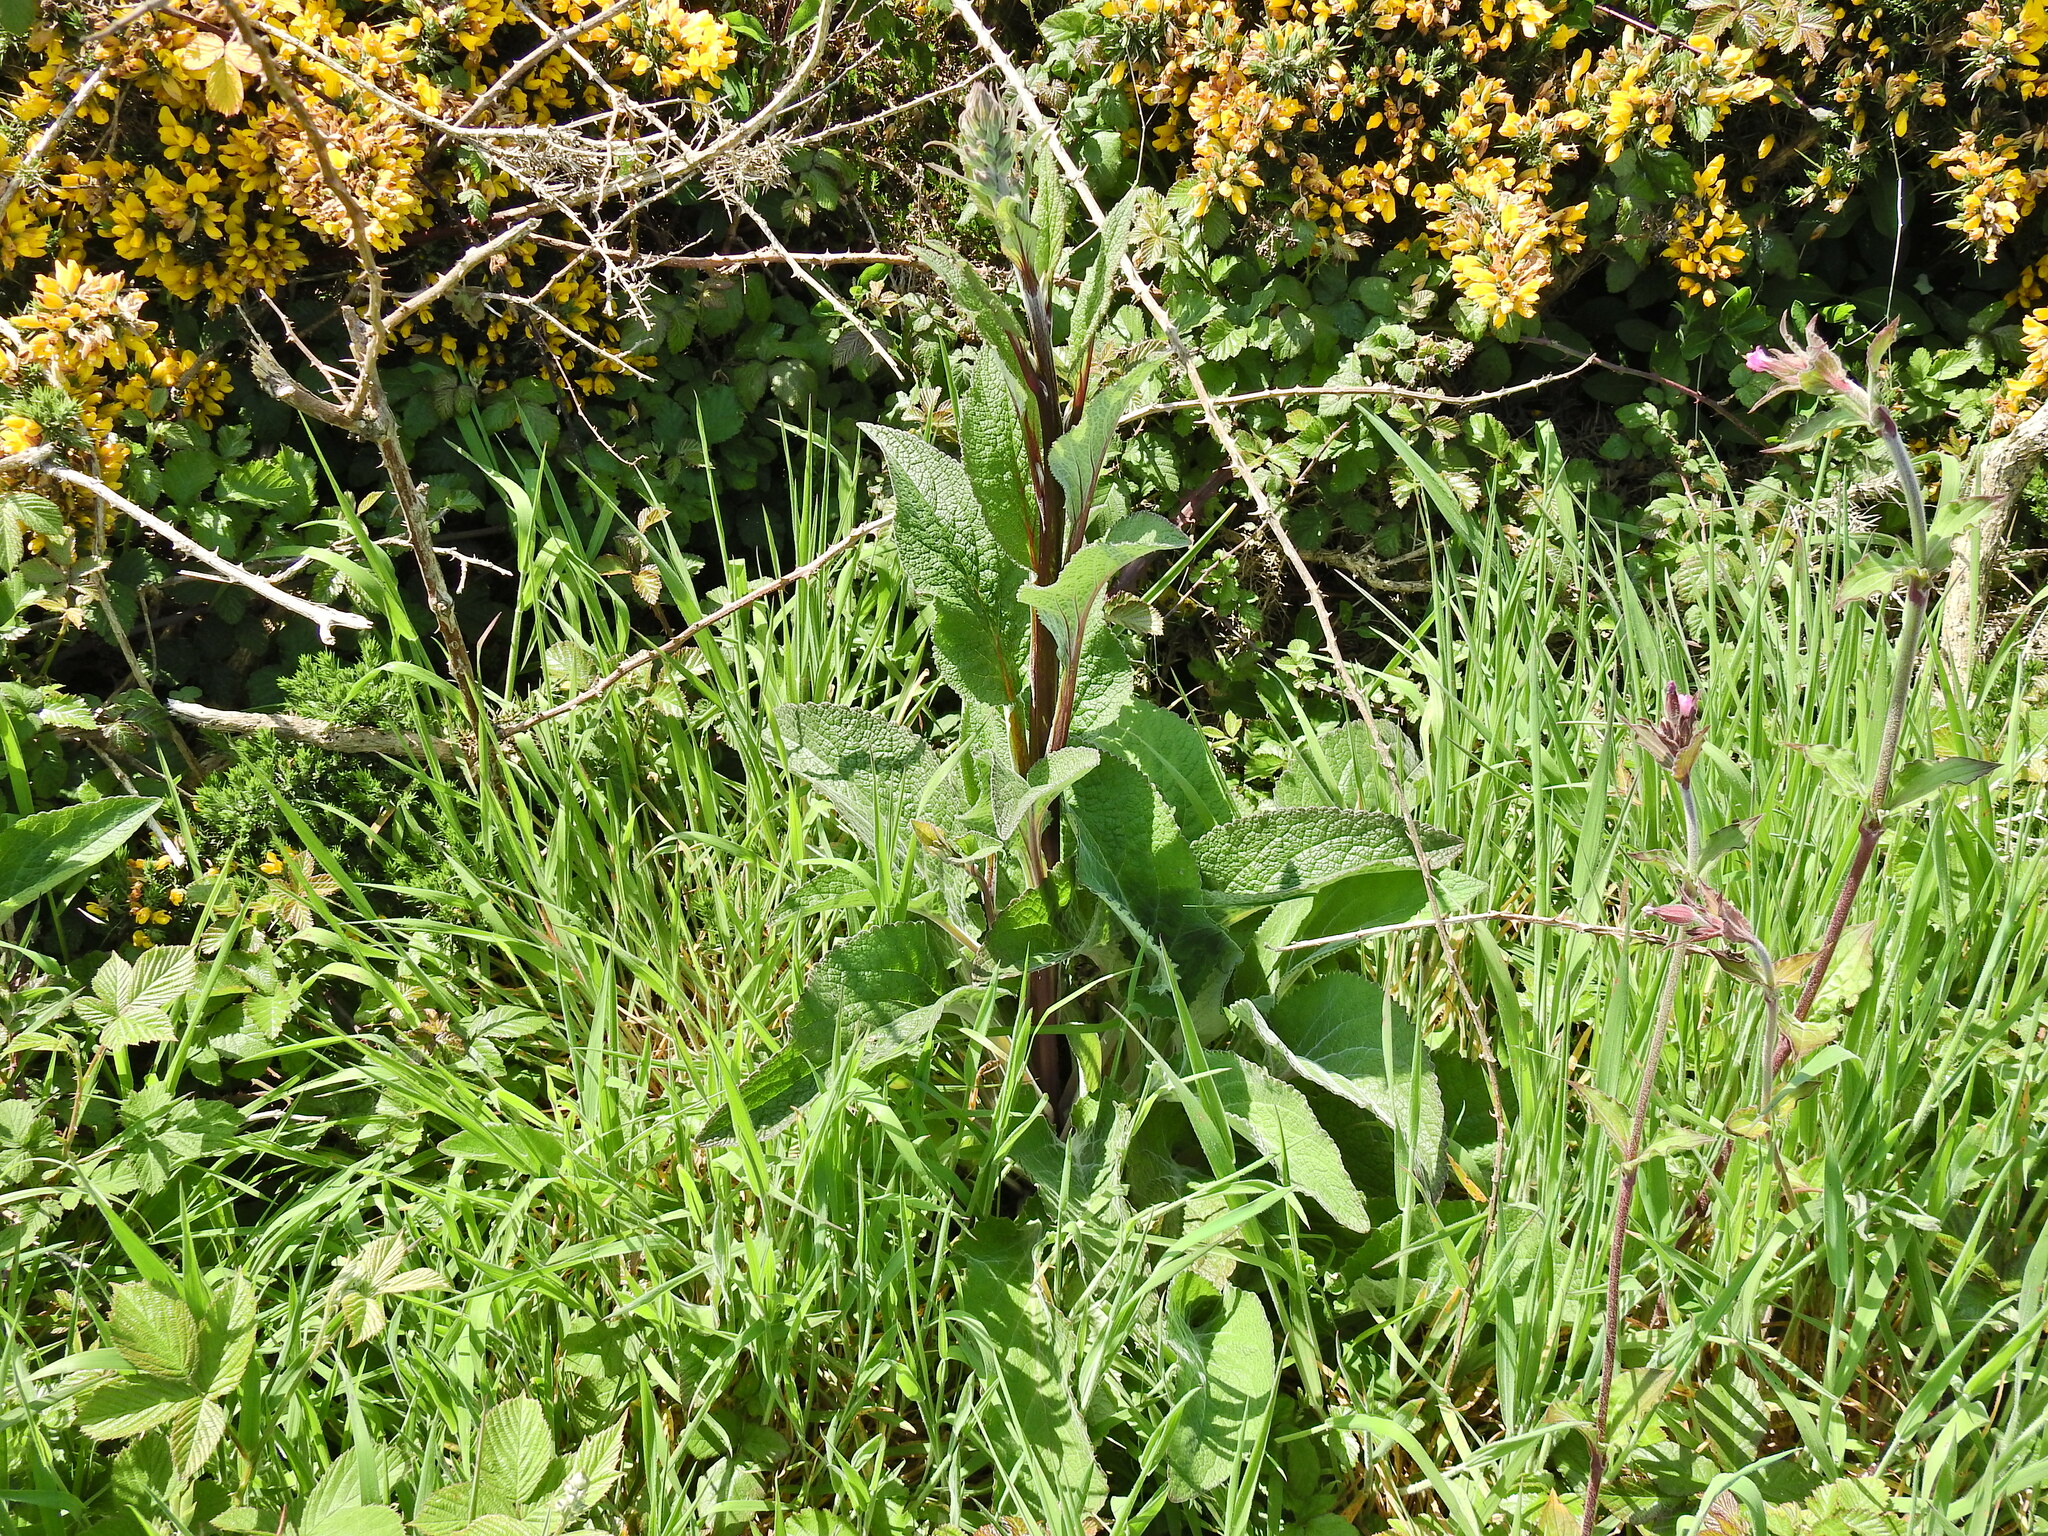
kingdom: Plantae
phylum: Tracheophyta
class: Magnoliopsida
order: Lamiales
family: Plantaginaceae
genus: Digitalis
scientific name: Digitalis purpurea
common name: Foxglove
